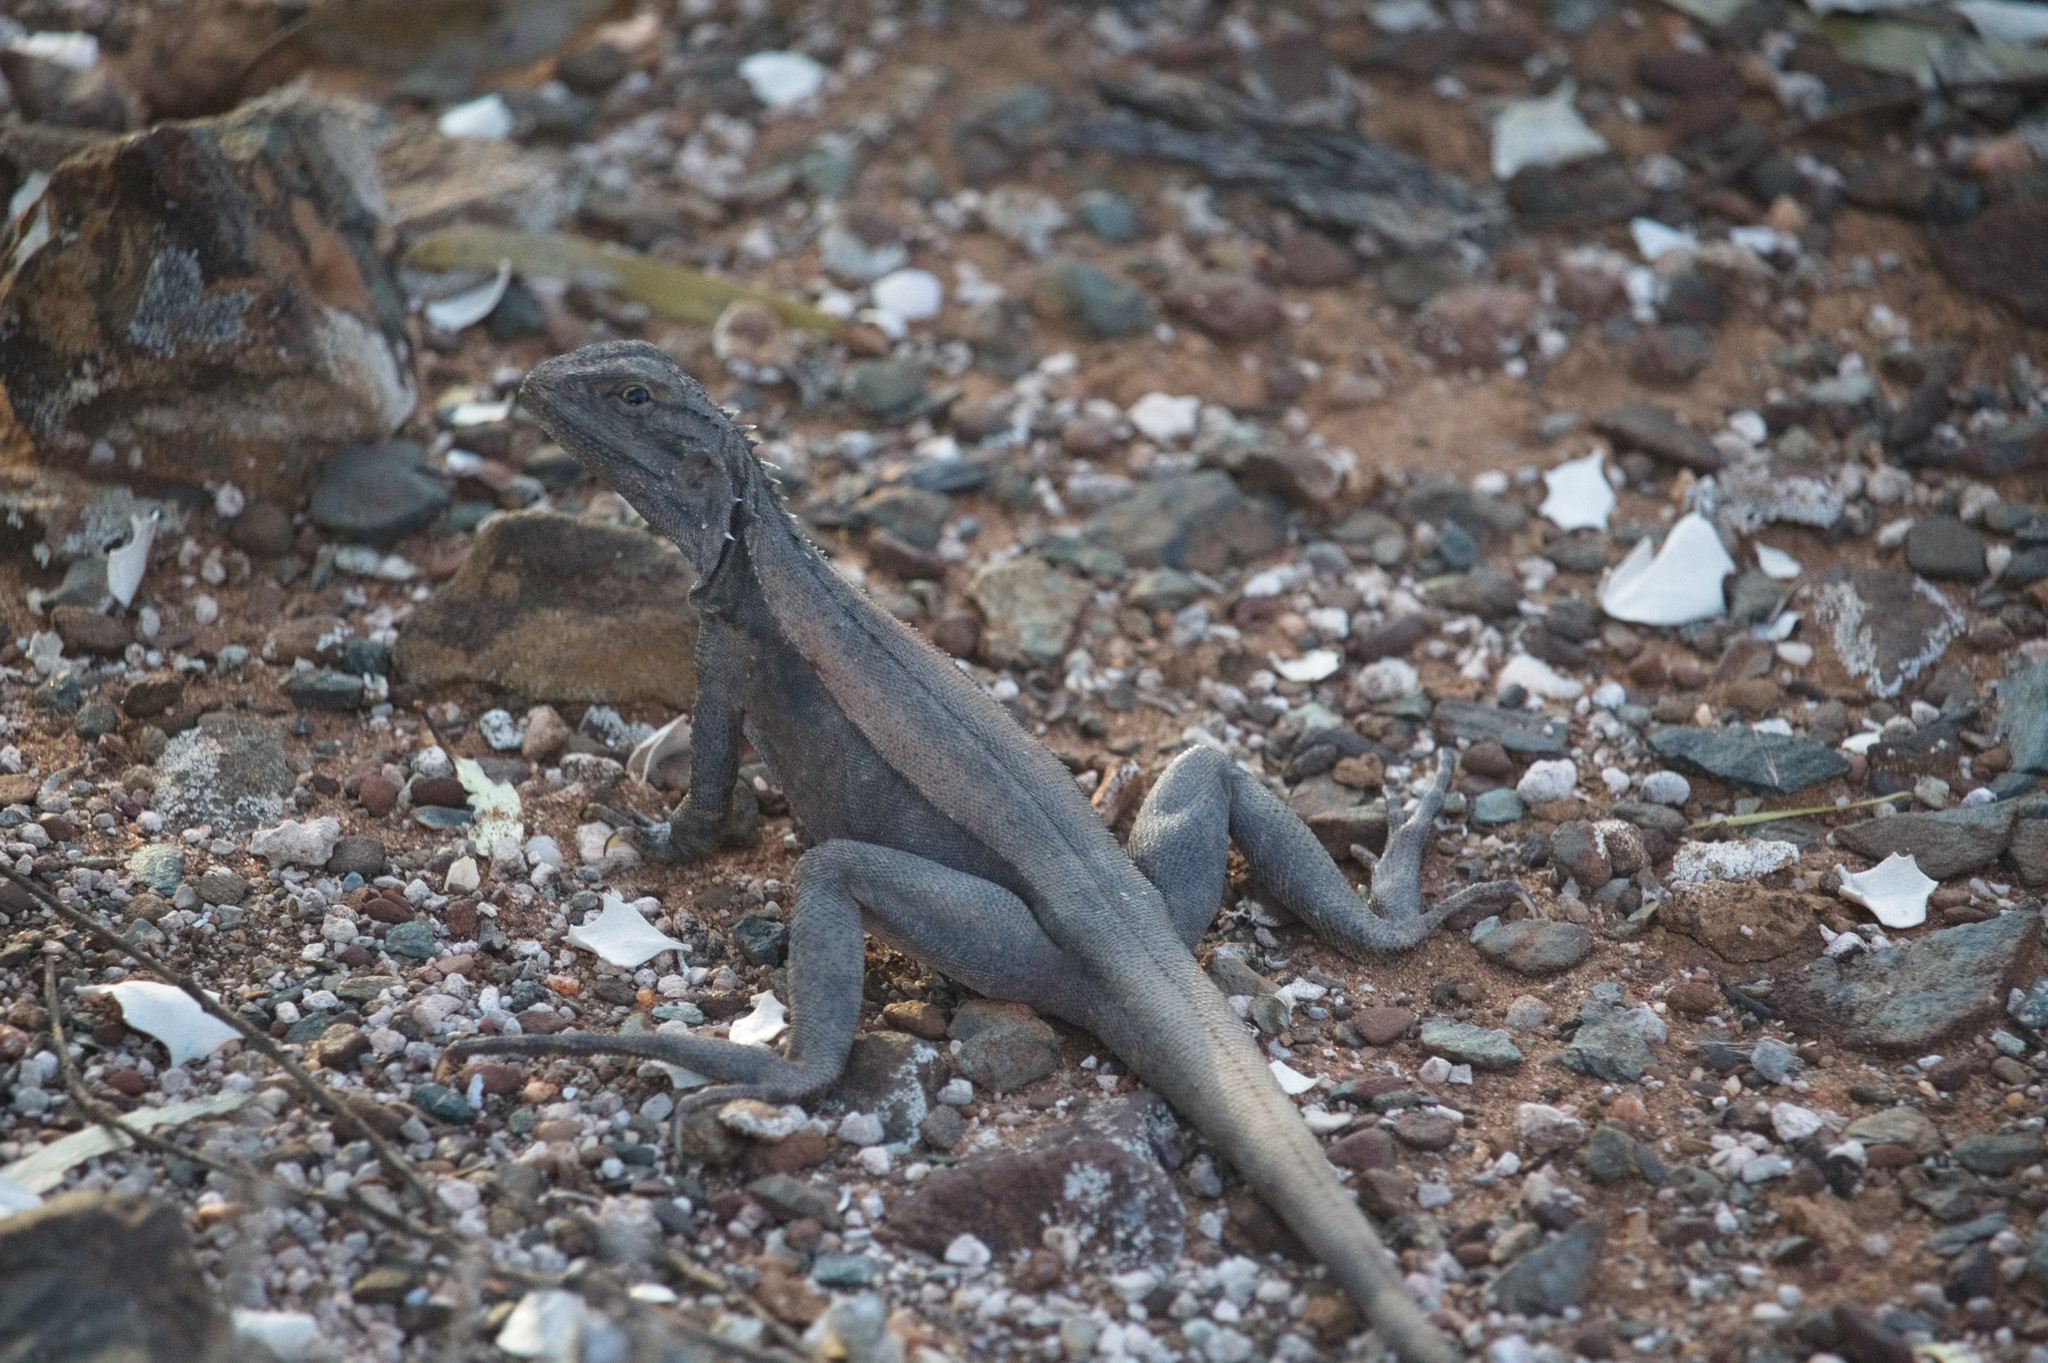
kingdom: Animalia
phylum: Chordata
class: Squamata
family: Agamidae
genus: Ctenophorus
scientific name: Ctenophorus cristatus
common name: Crested dragon
